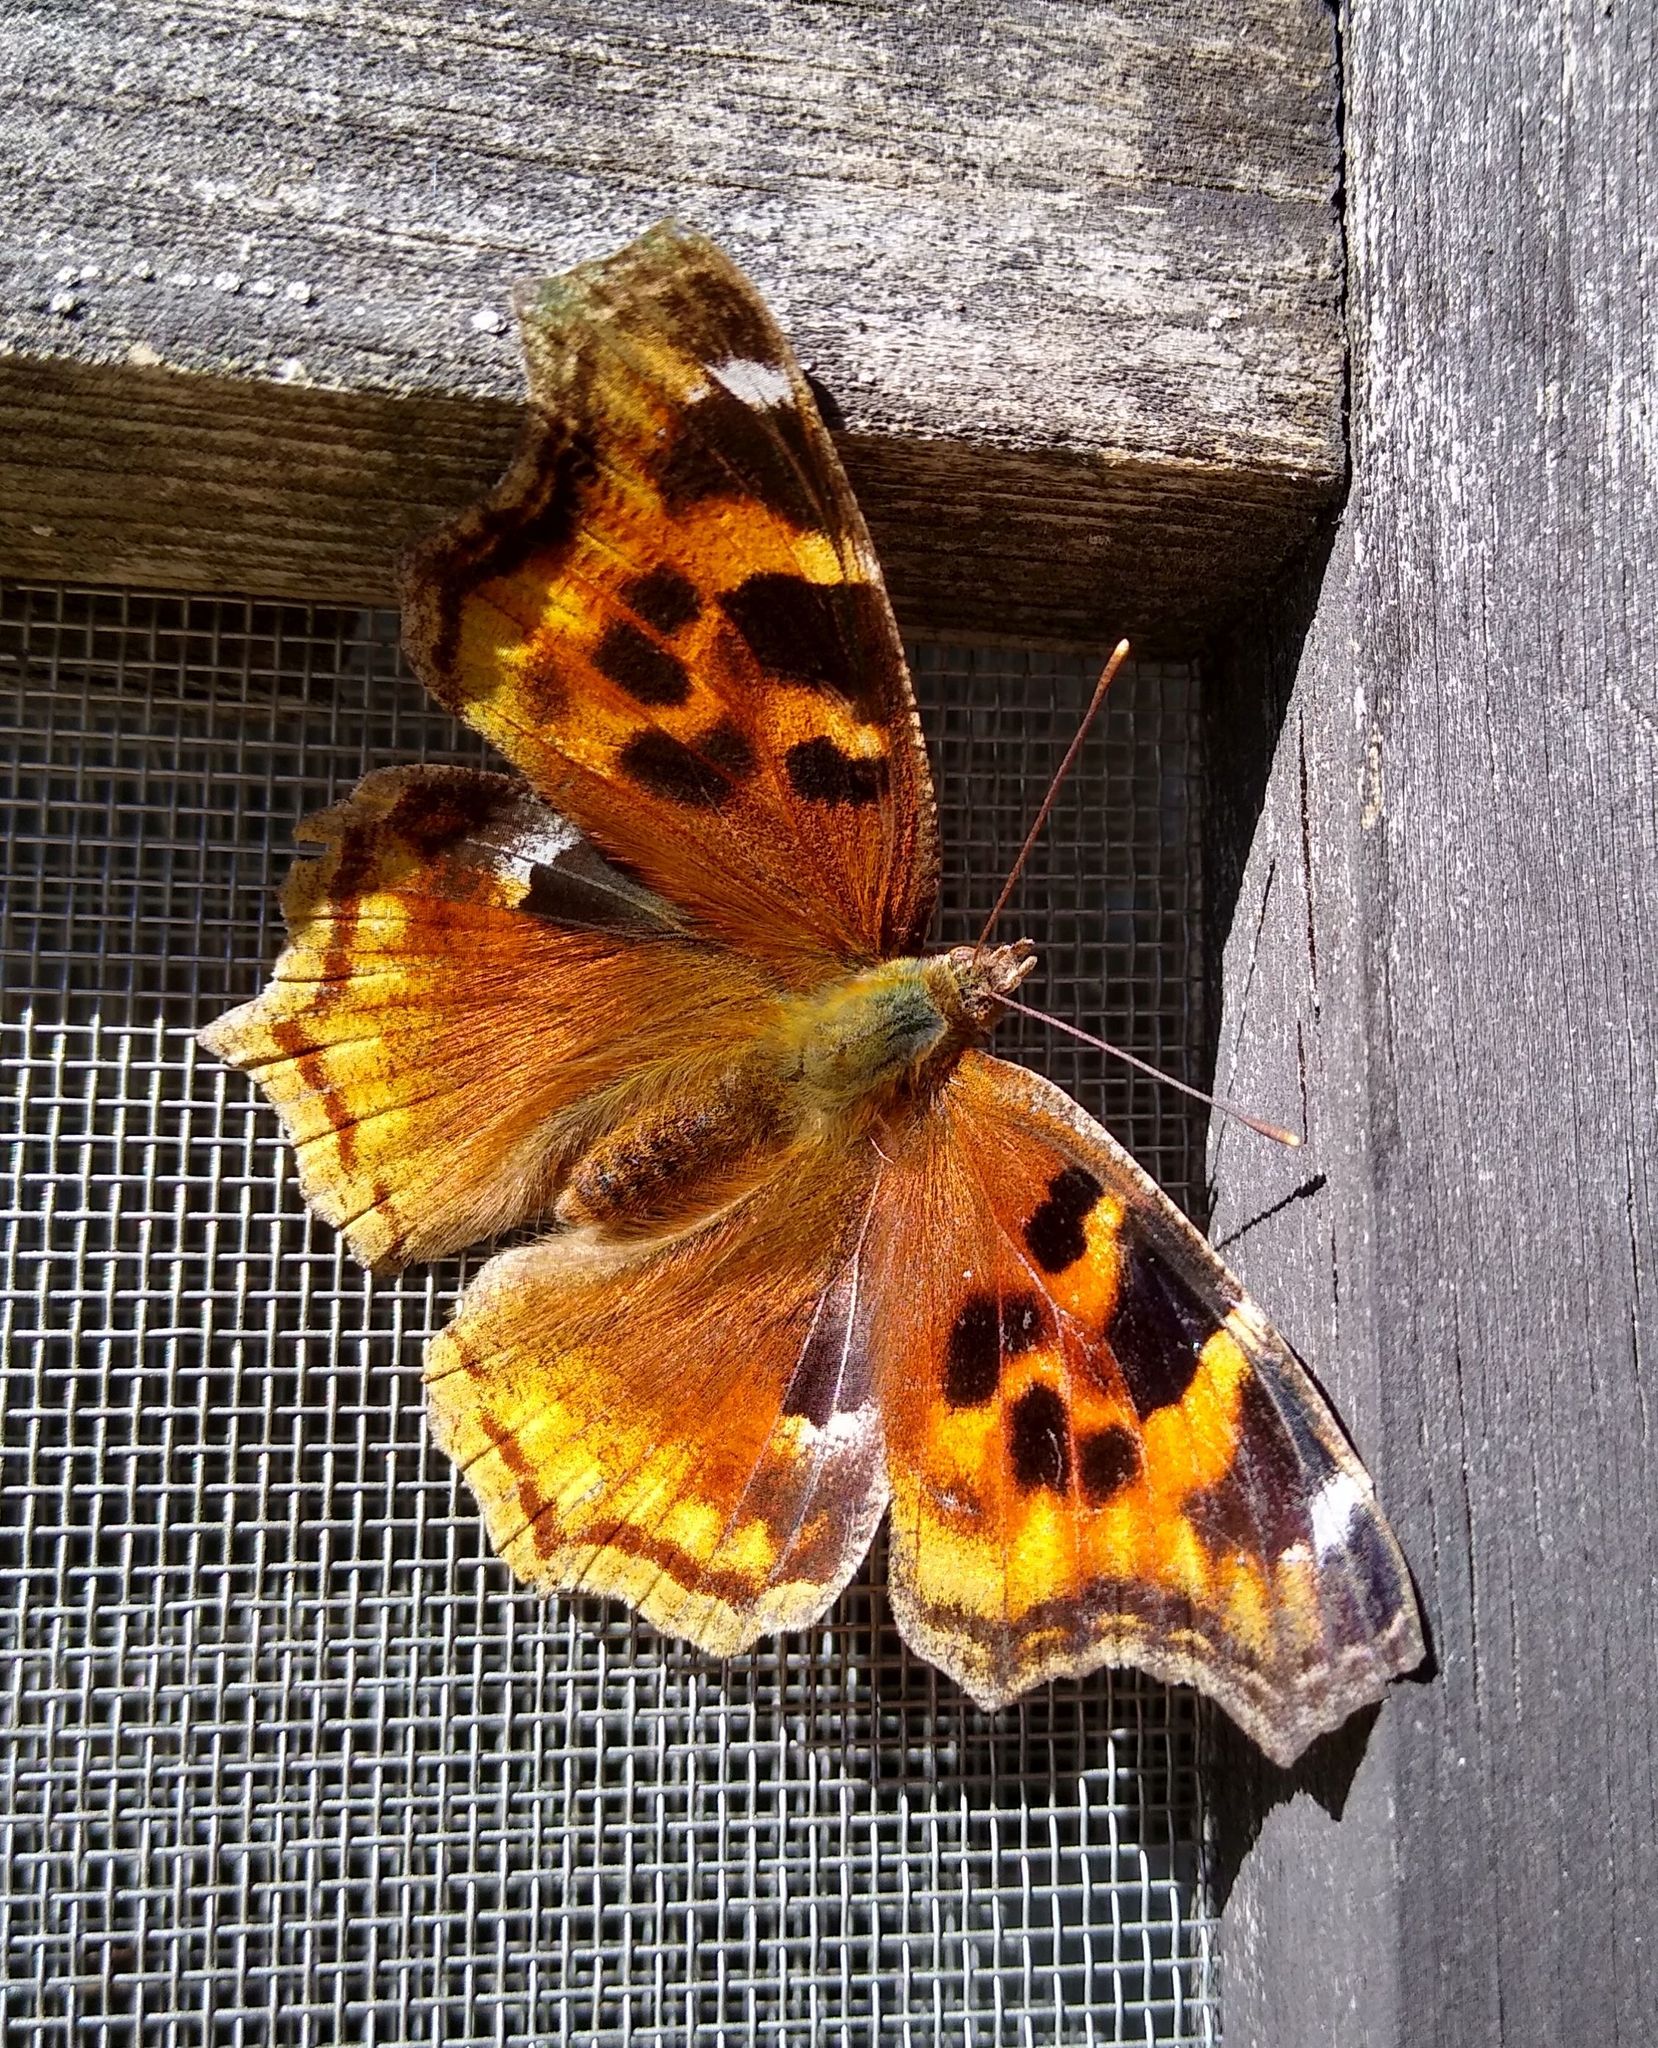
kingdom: Animalia
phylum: Arthropoda
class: Insecta
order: Lepidoptera
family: Nymphalidae
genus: Polygonia
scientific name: Polygonia vaualbum
